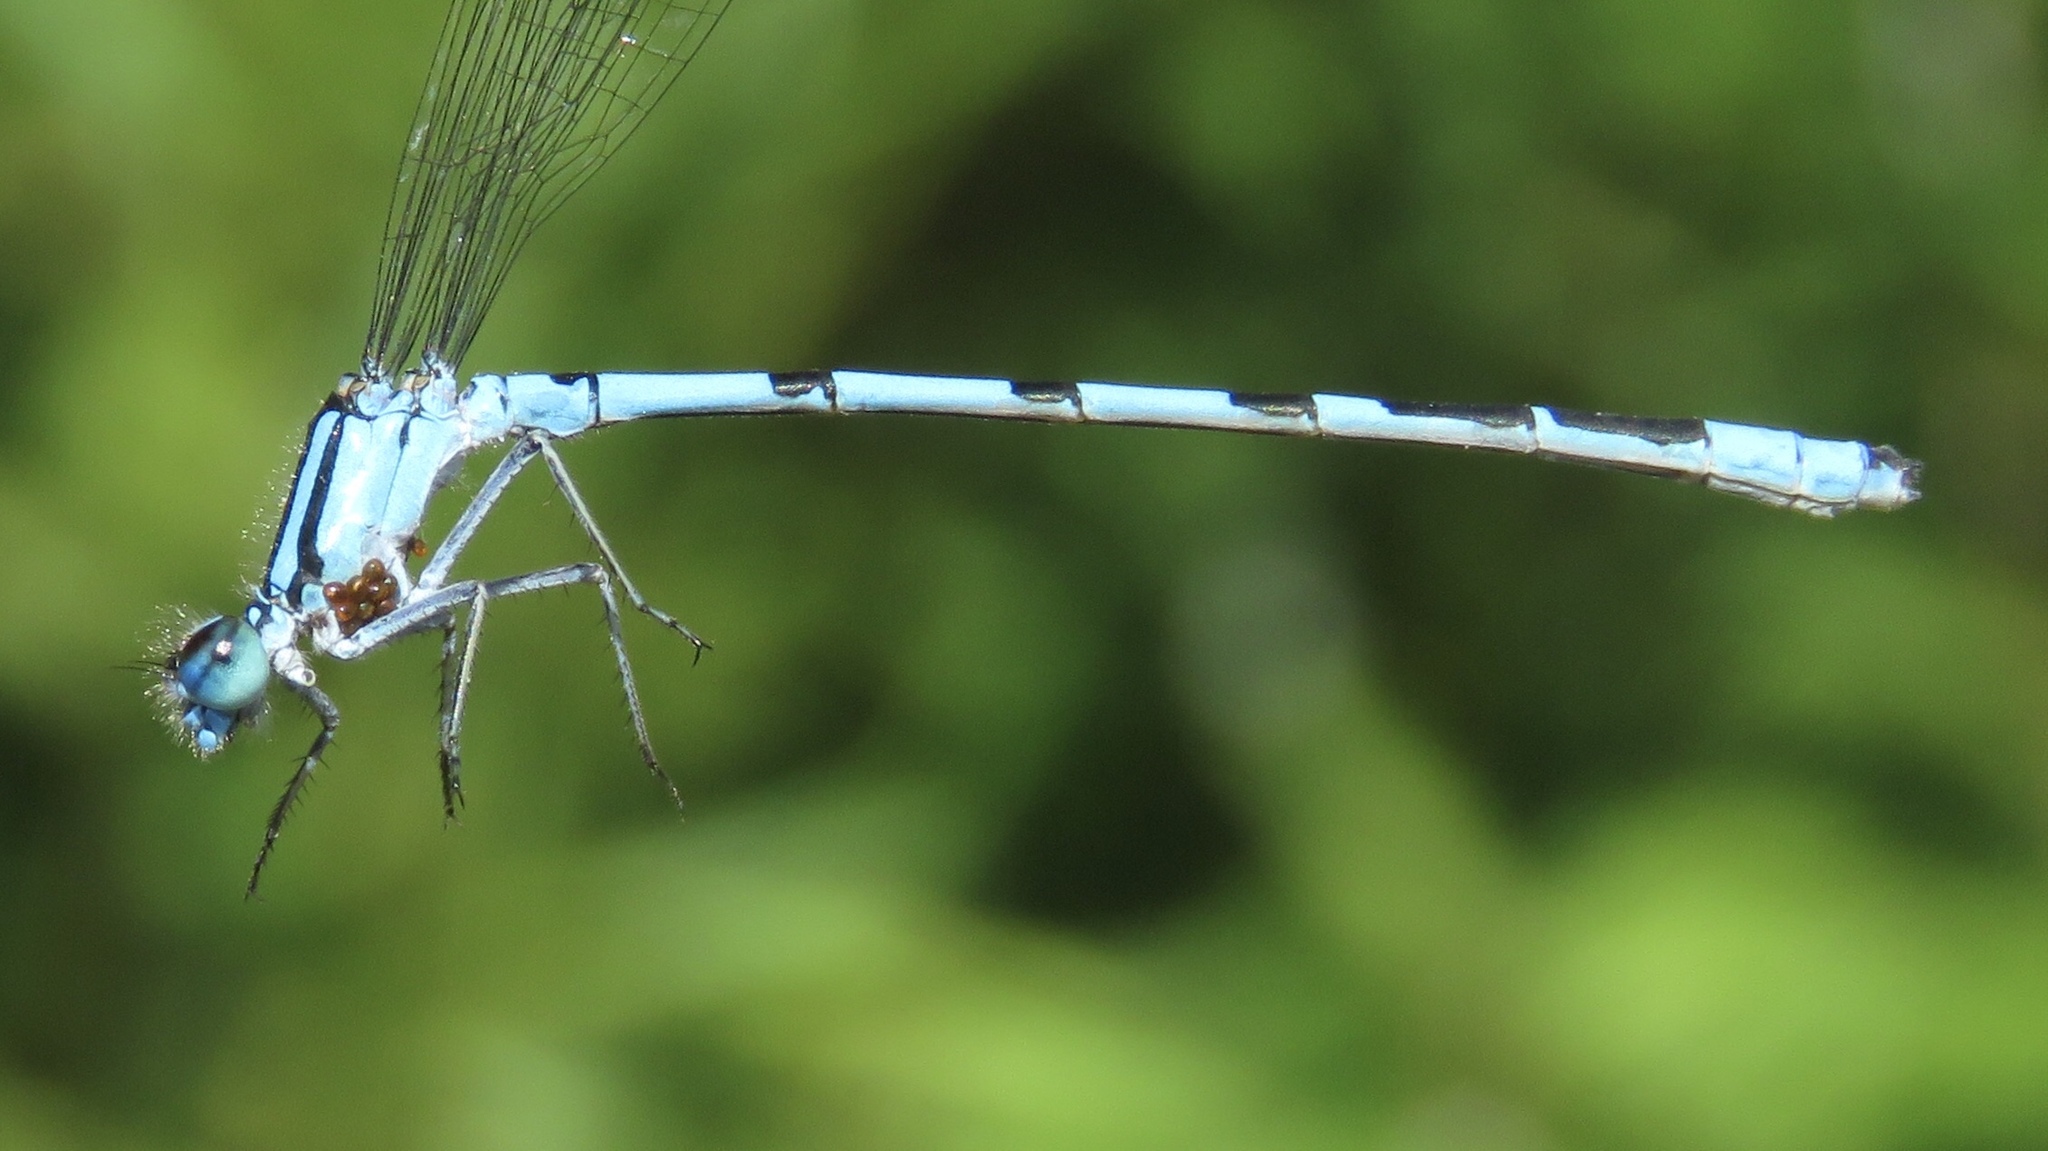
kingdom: Animalia
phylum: Arthropoda
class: Insecta
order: Odonata
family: Coenagrionidae
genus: Enallagma
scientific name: Enallagma ebrium
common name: Marsh bluet
